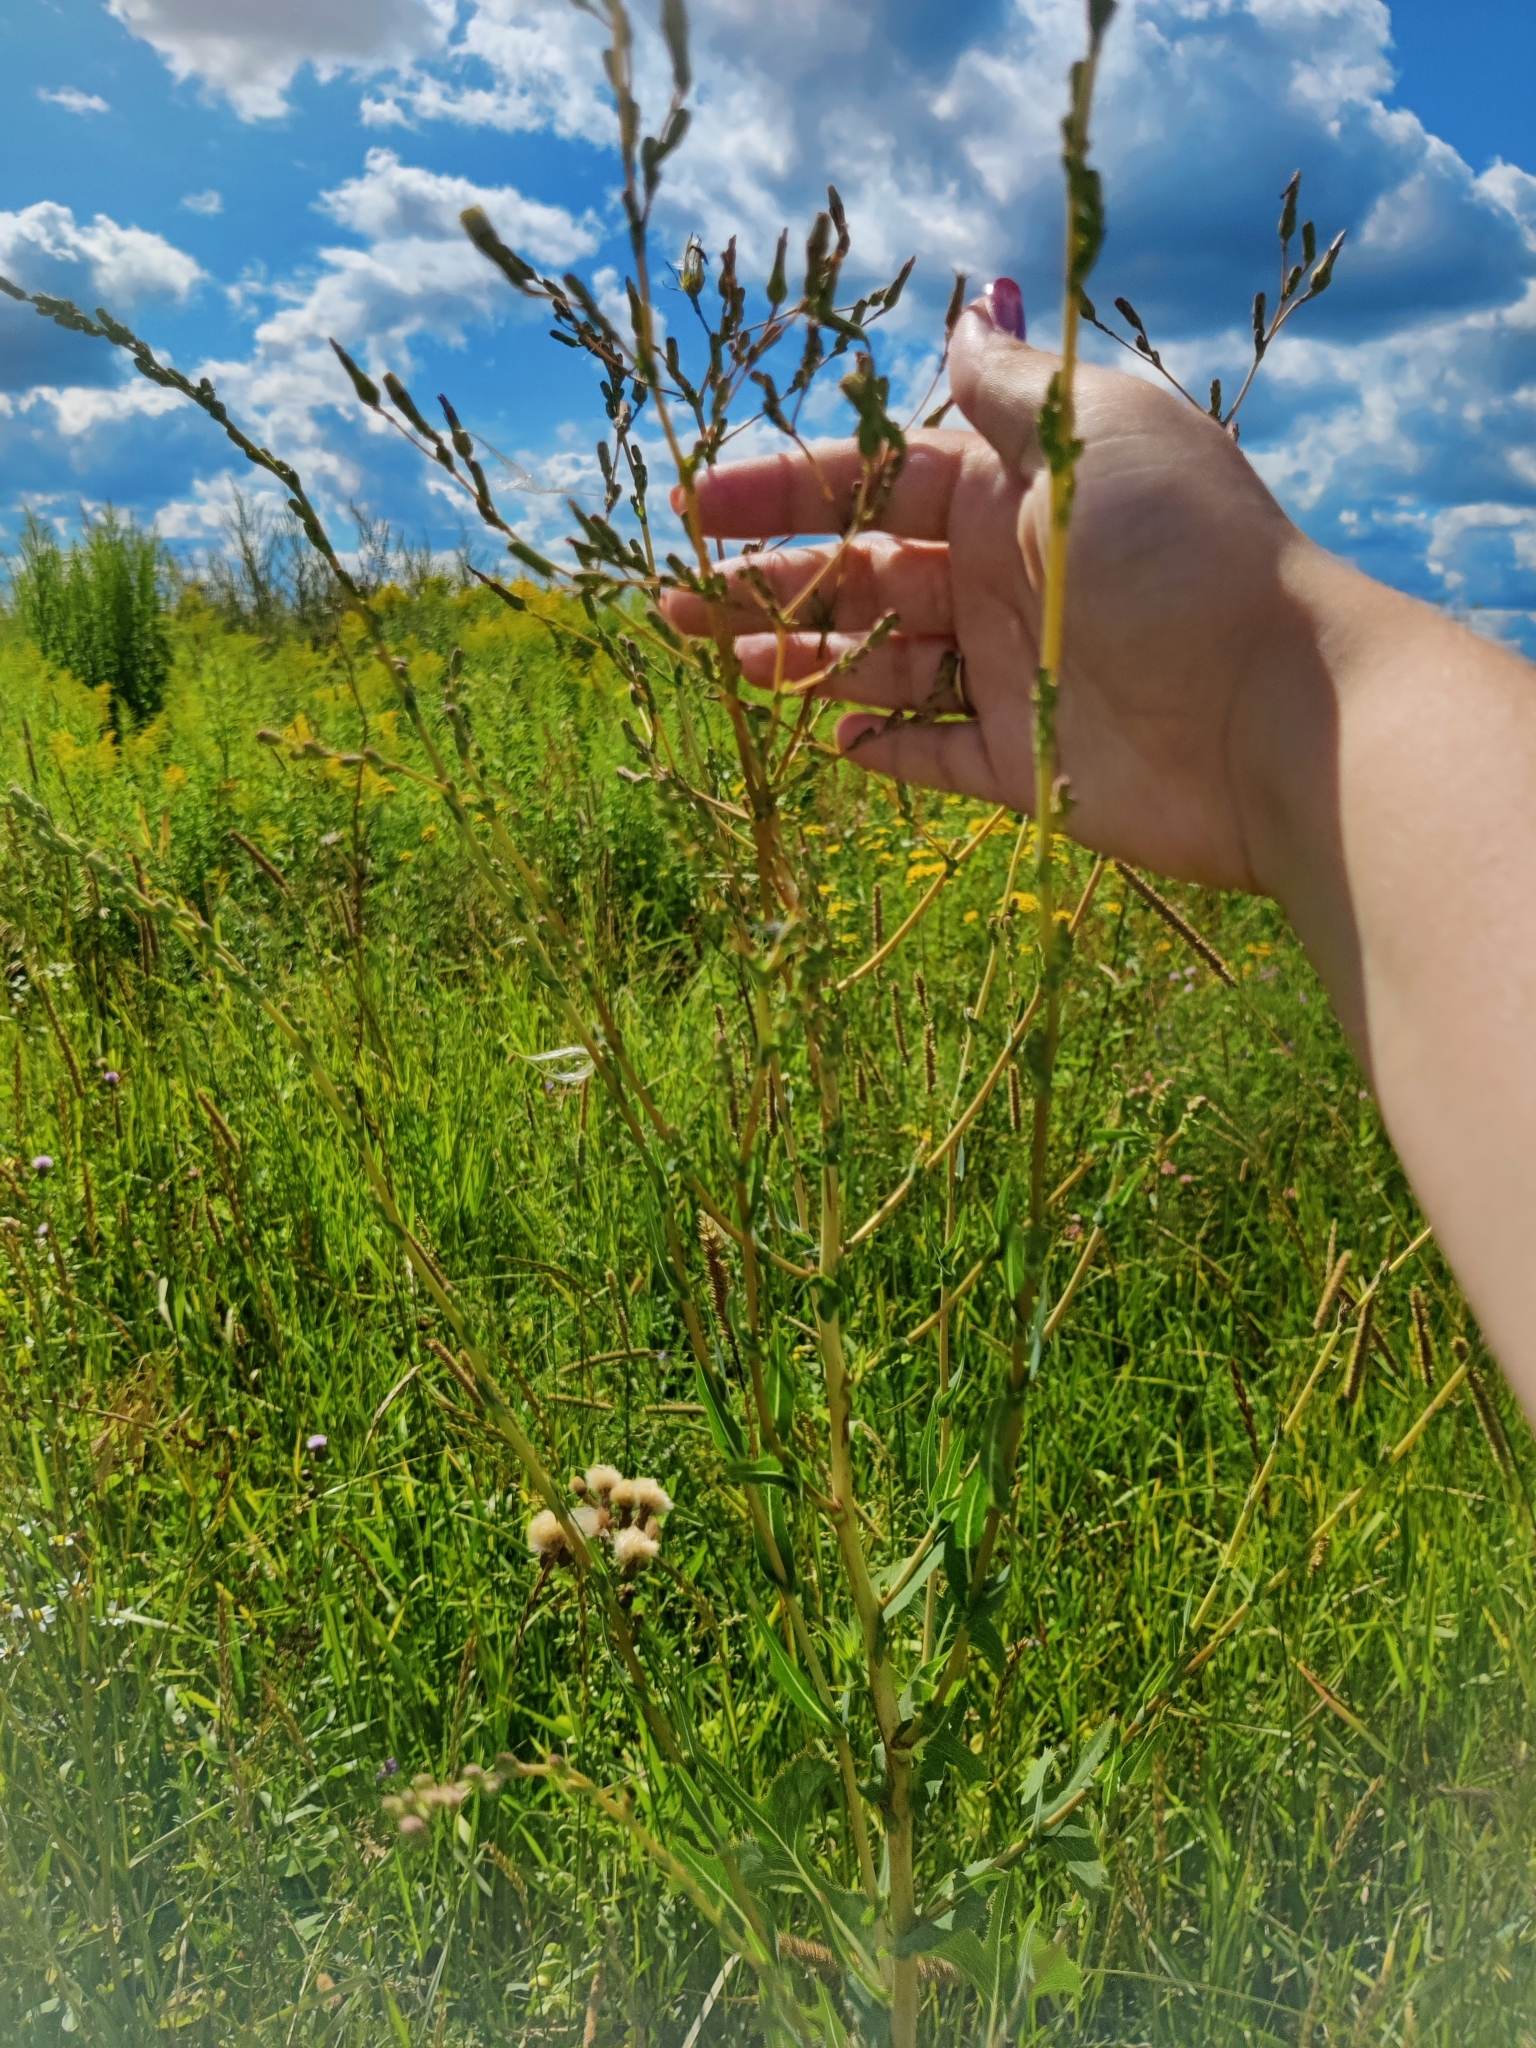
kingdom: Plantae
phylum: Tracheophyta
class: Magnoliopsida
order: Asterales
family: Asteraceae
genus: Lactuca
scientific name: Lactuca serriola
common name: Prickly lettuce
